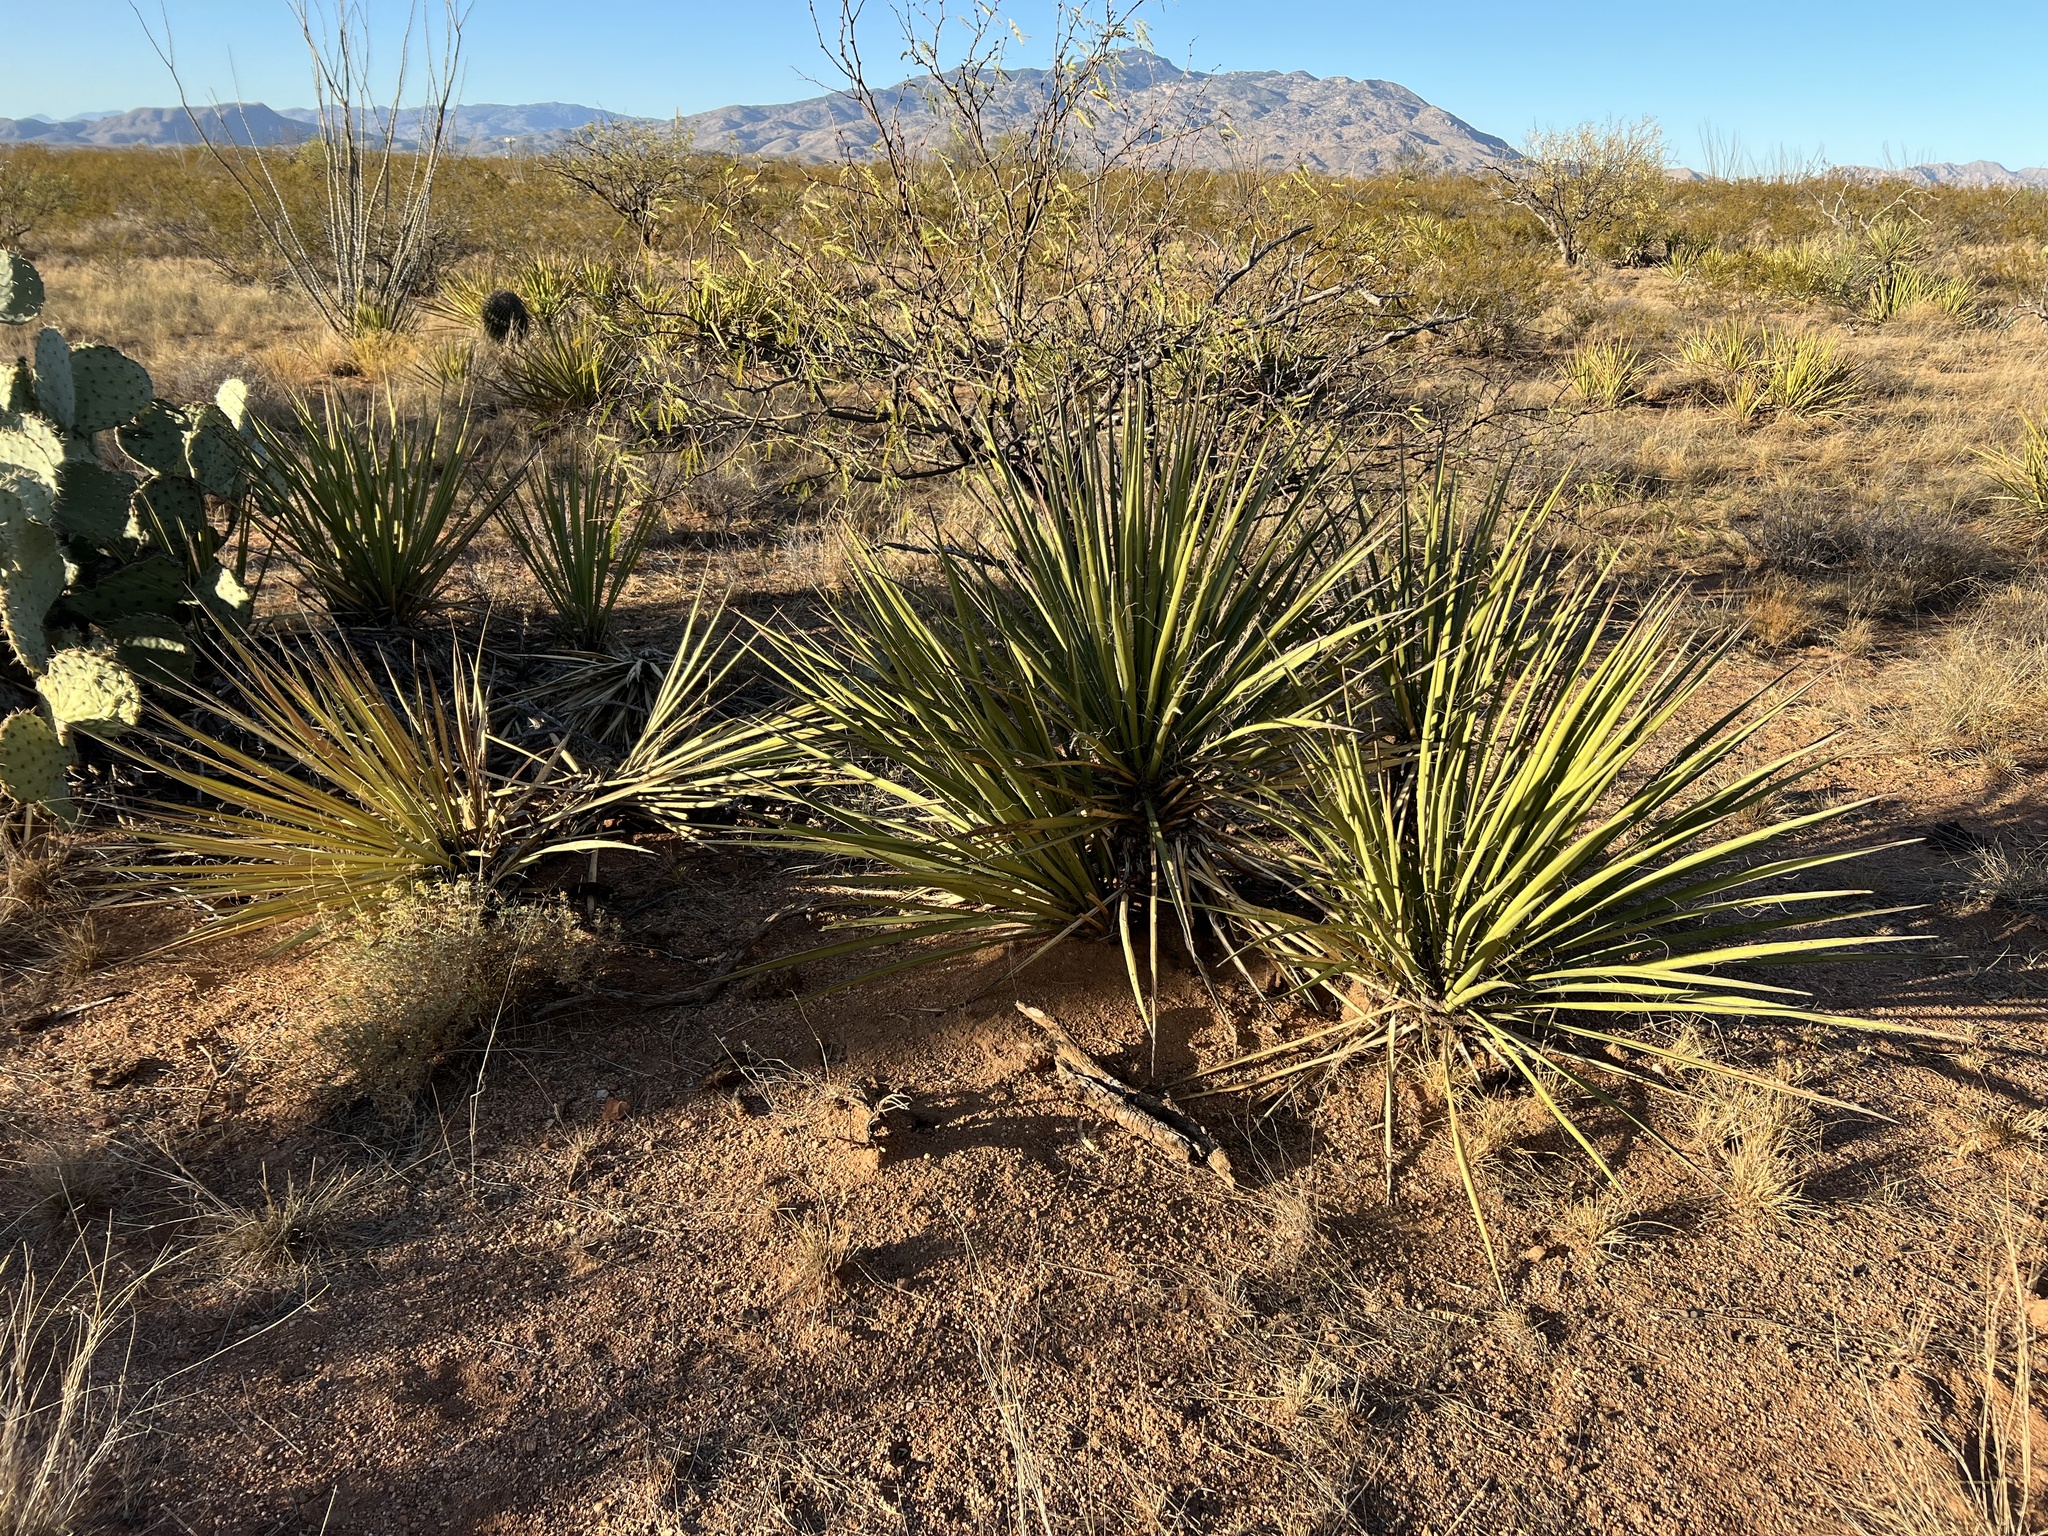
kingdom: Plantae
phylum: Tracheophyta
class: Liliopsida
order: Asparagales
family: Asparagaceae
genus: Yucca
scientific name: Yucca baccata
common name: Banana yucca
